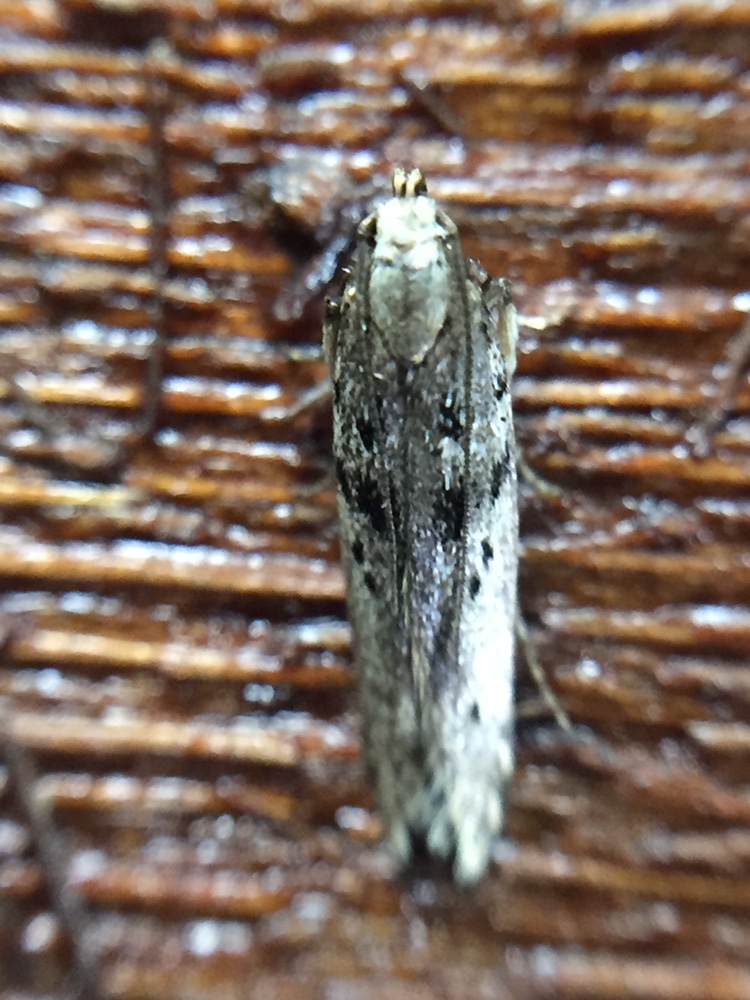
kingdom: Animalia
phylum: Arthropoda
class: Insecta
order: Lepidoptera
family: Gelechiidae
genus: Aristotelia
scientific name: Aristotelia paradesma
